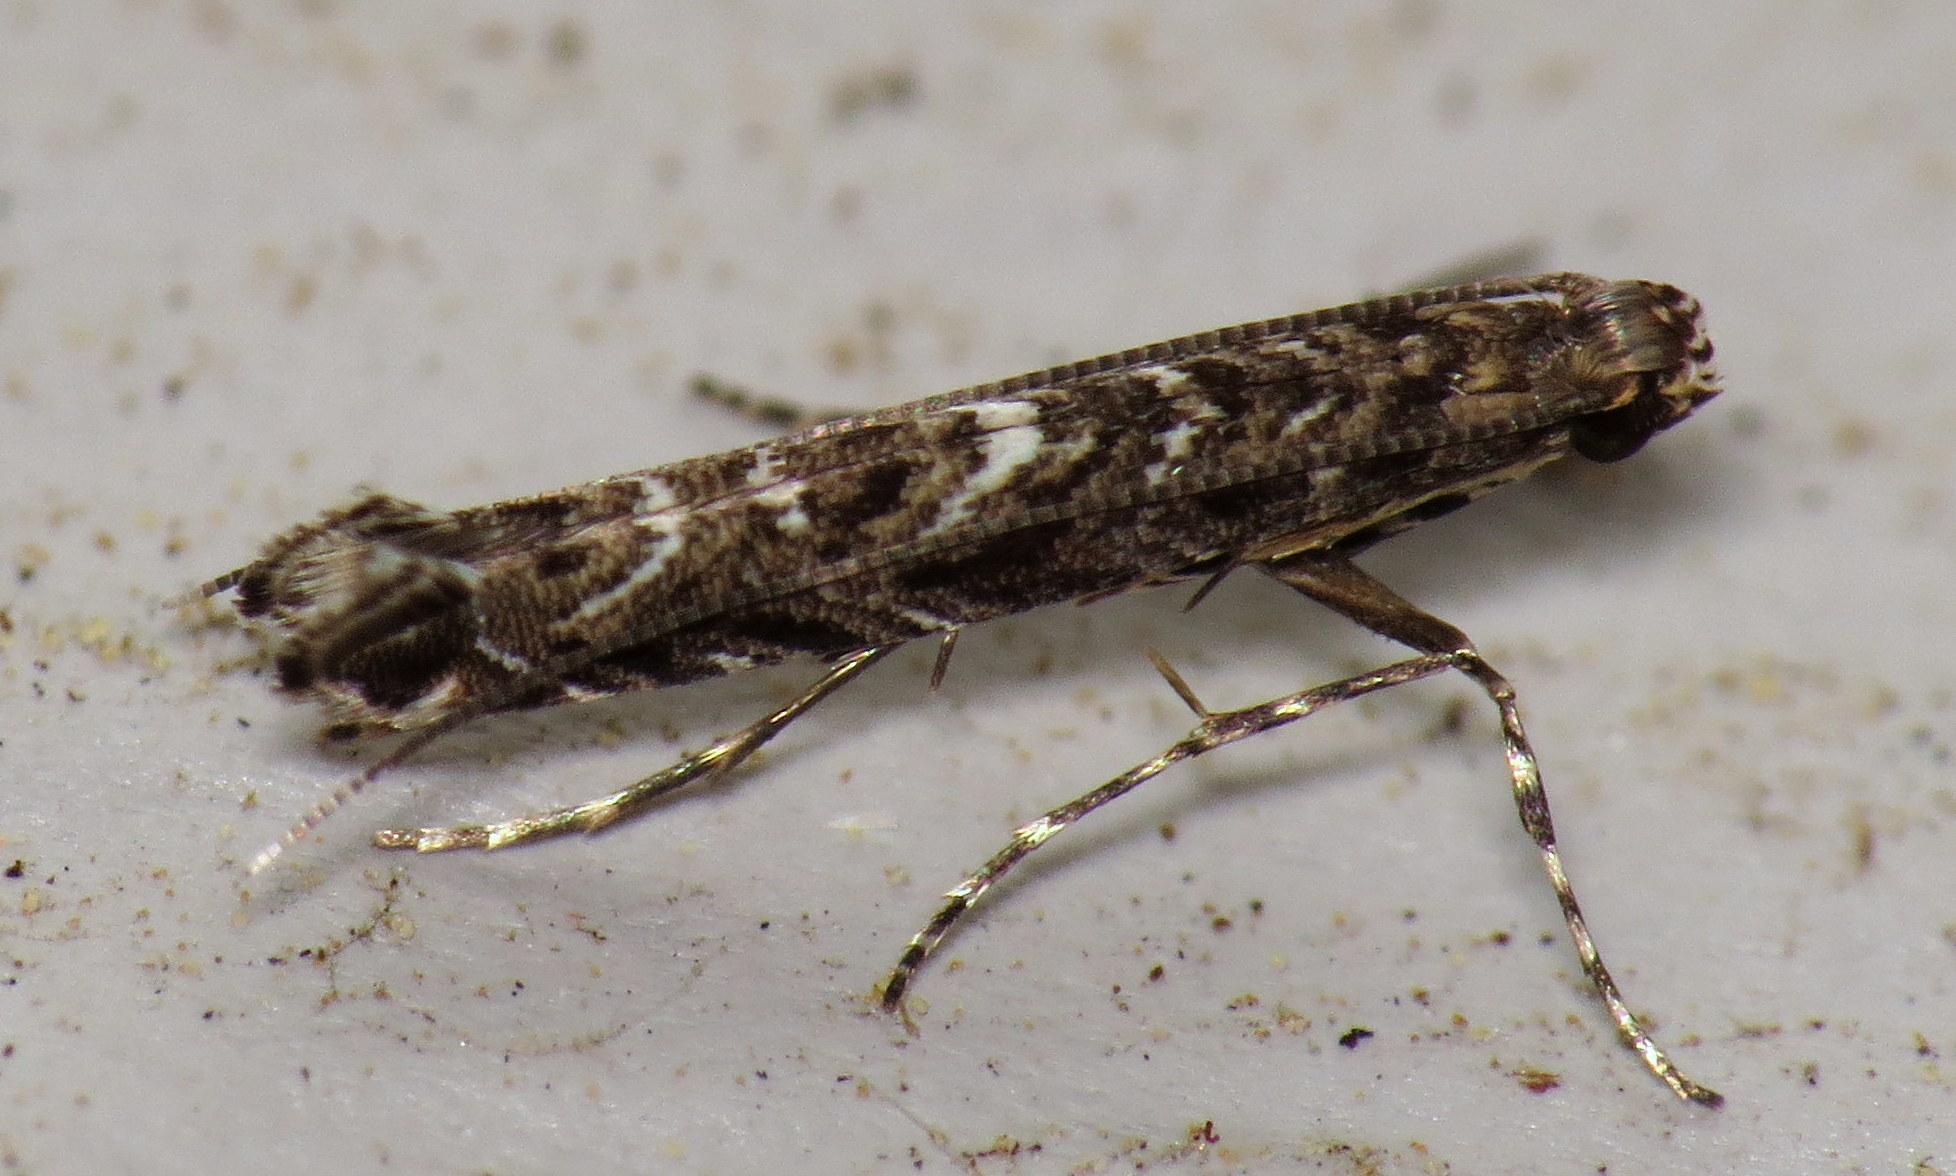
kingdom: Animalia
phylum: Arthropoda
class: Insecta
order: Lepidoptera
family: Gracillariidae
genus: Neurobathra
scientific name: Neurobathra strigifinitella
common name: Finite-channeled leafminer moth
